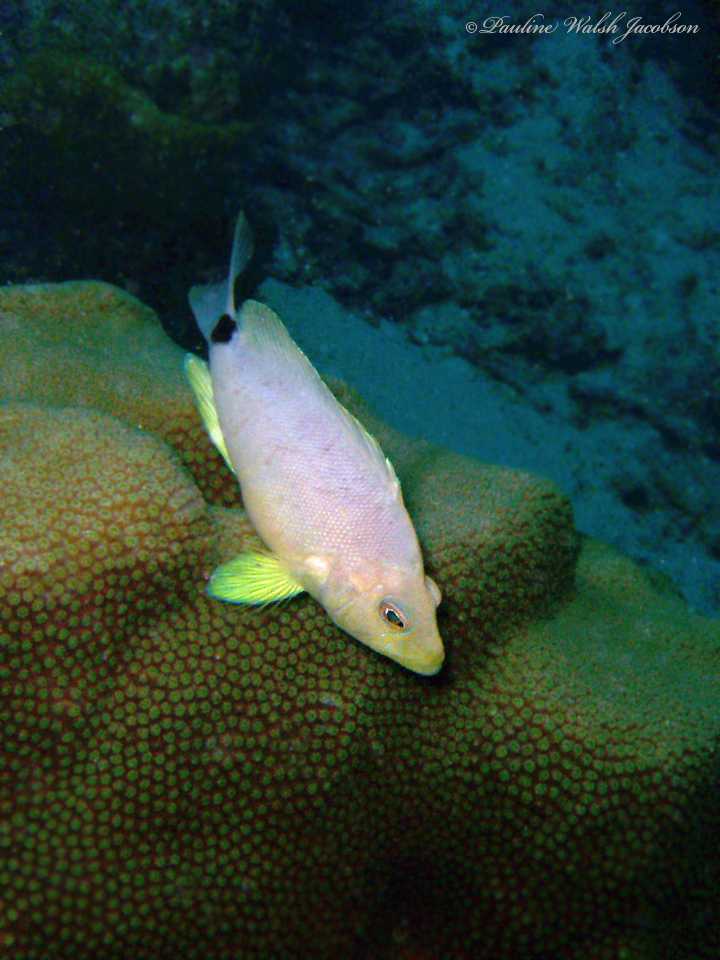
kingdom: Animalia
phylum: Chordata
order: Perciformes
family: Serranidae
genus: Hypoplectrus
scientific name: Hypoplectrus unicolor
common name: Butter hamlet
